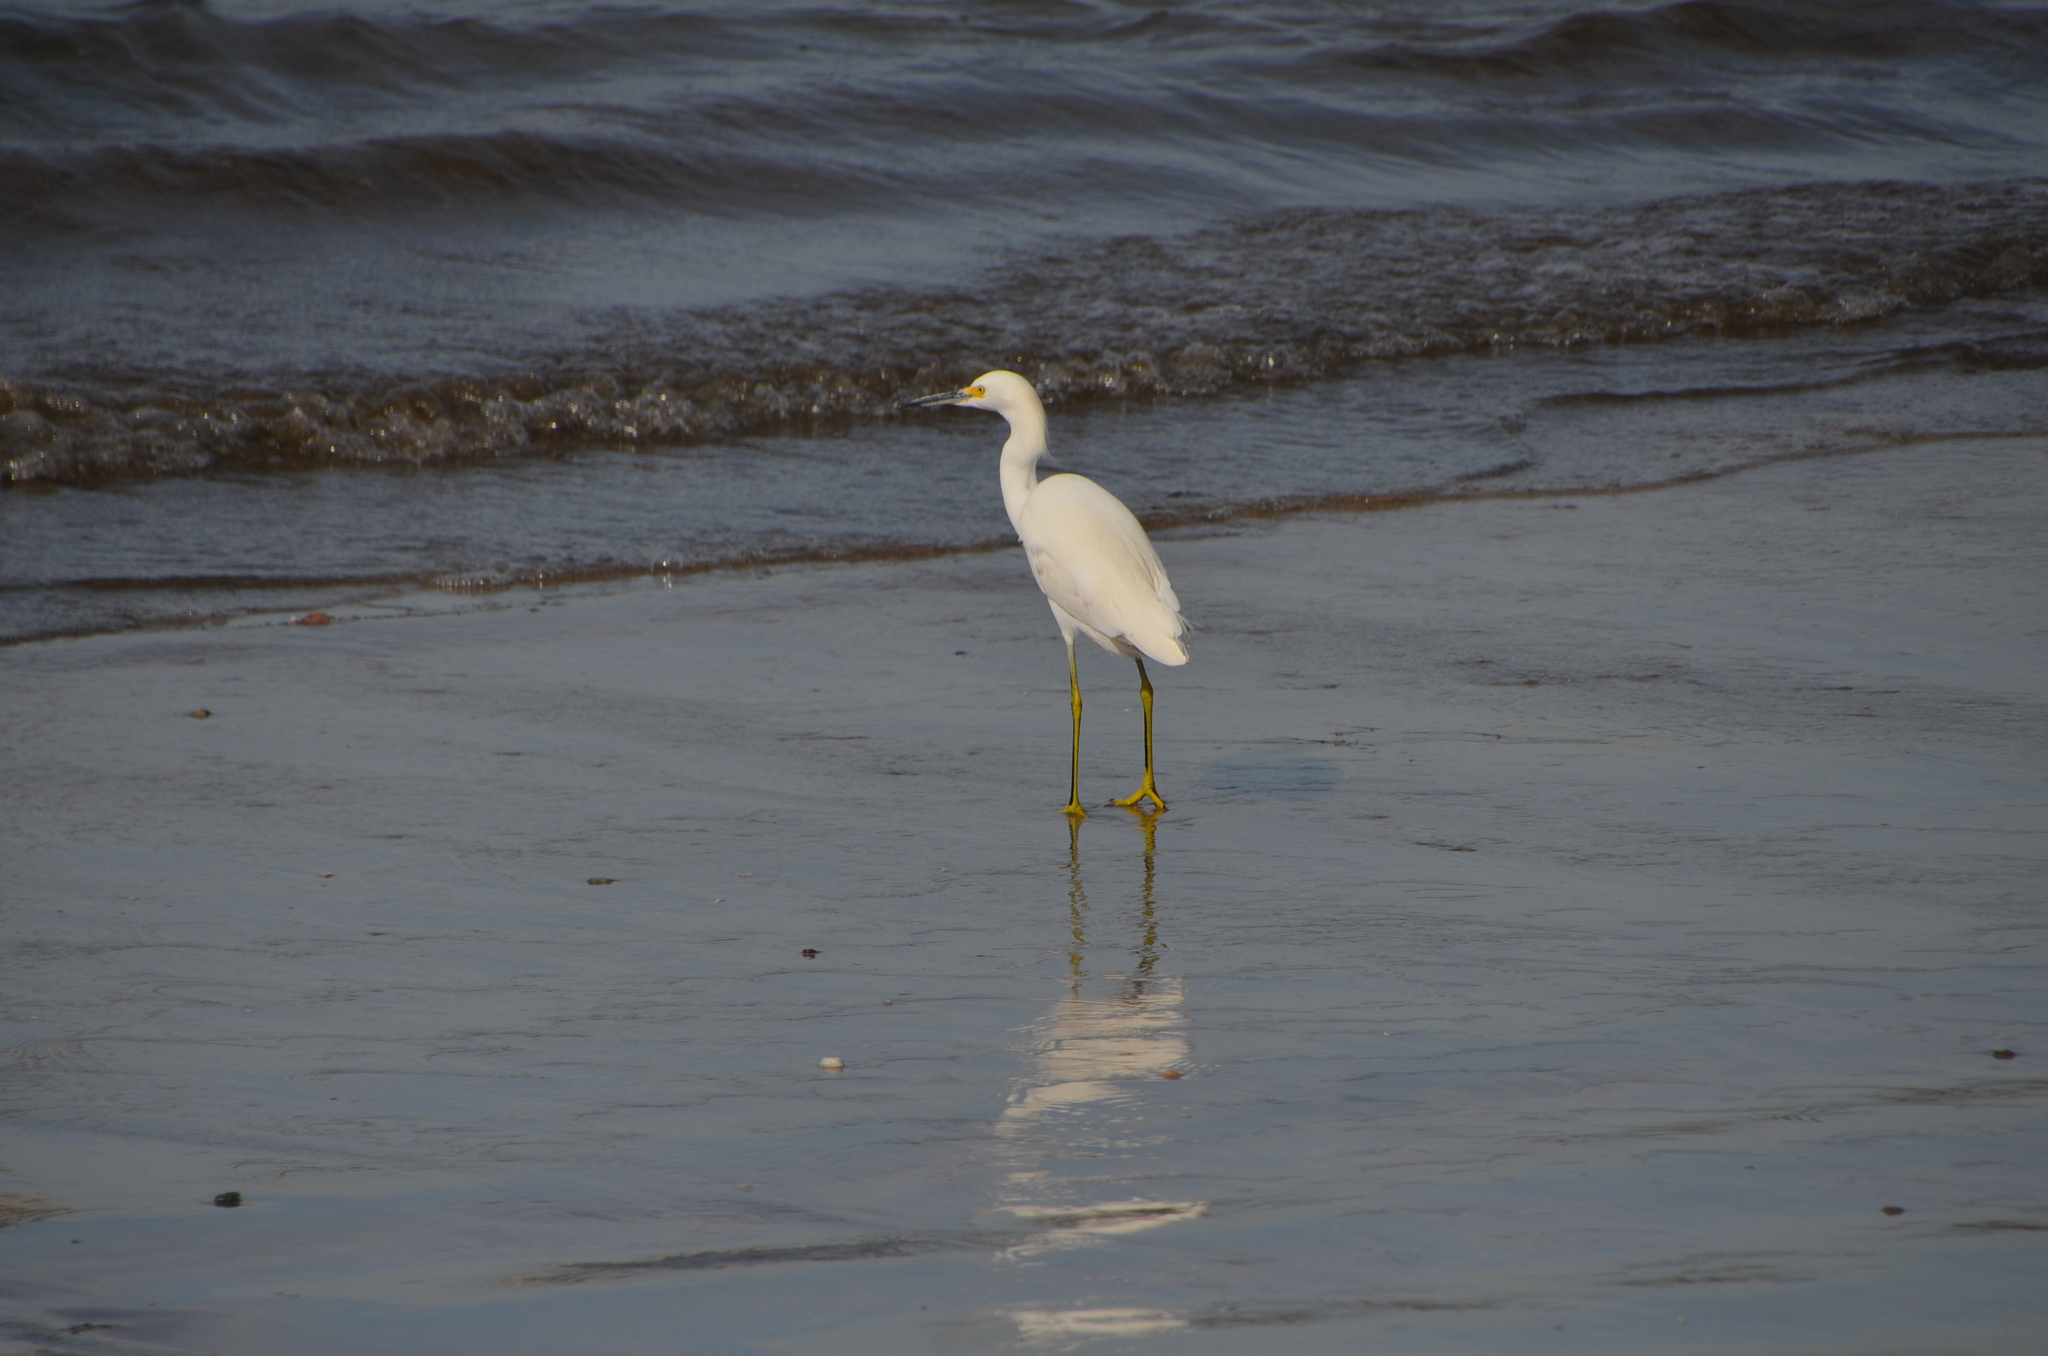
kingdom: Animalia
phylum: Chordata
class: Aves
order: Pelecaniformes
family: Ardeidae
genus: Egretta
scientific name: Egretta thula
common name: Snowy egret
